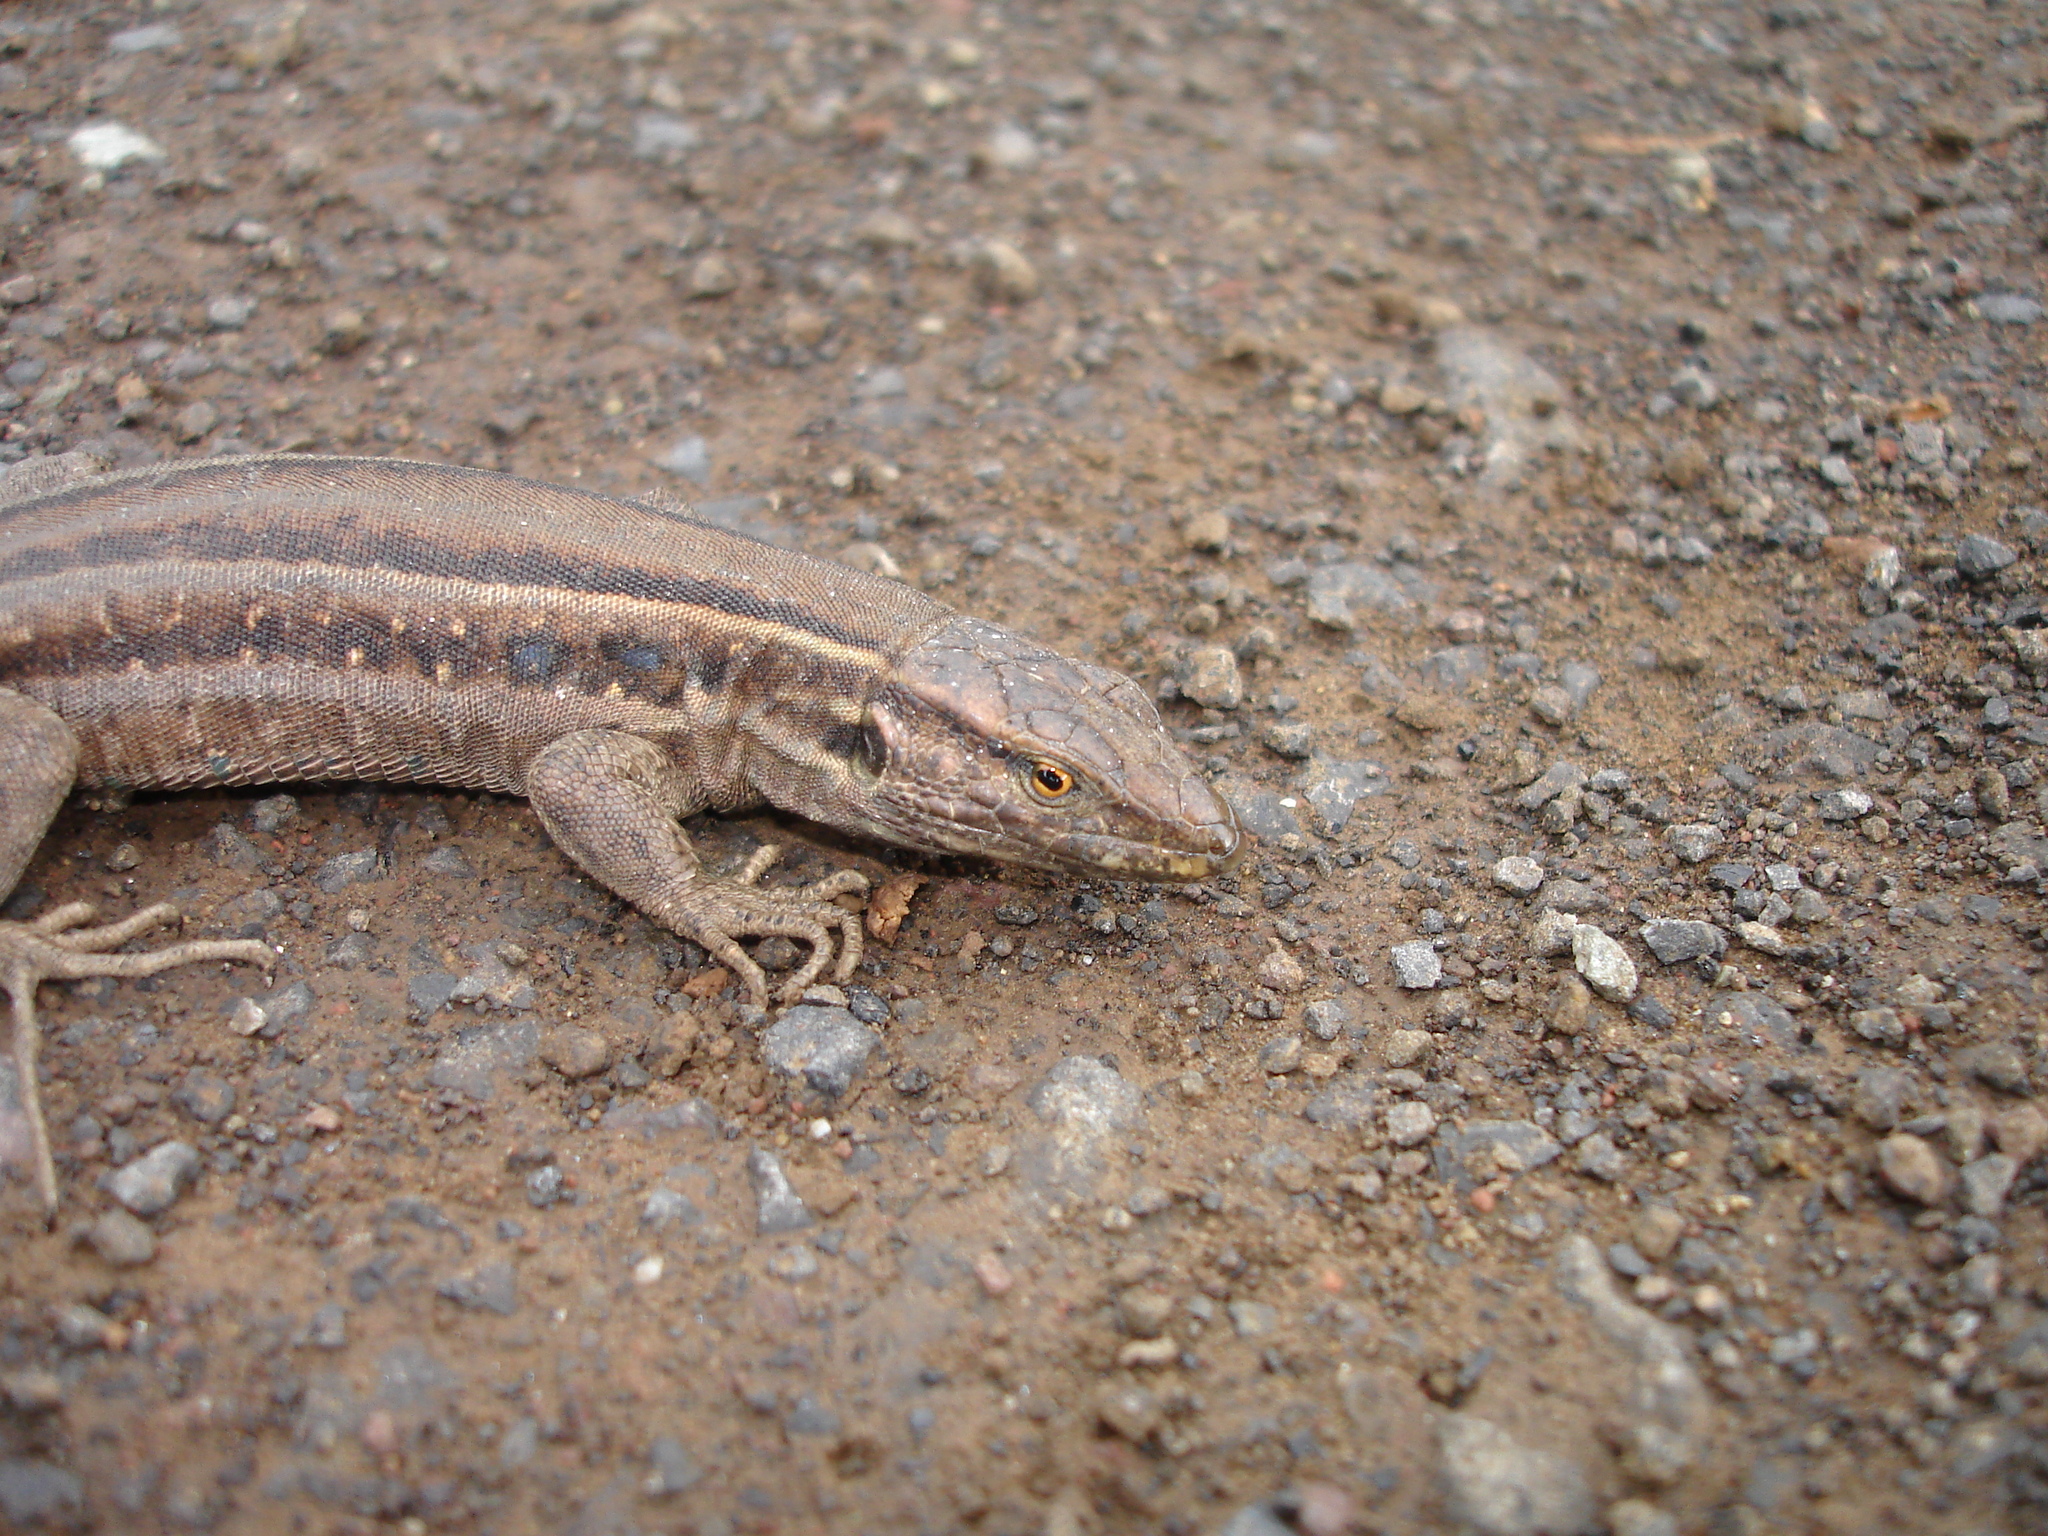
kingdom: Animalia
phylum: Chordata
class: Squamata
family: Lacertidae
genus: Gallotia
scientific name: Gallotia galloti
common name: Gallot's lizard
